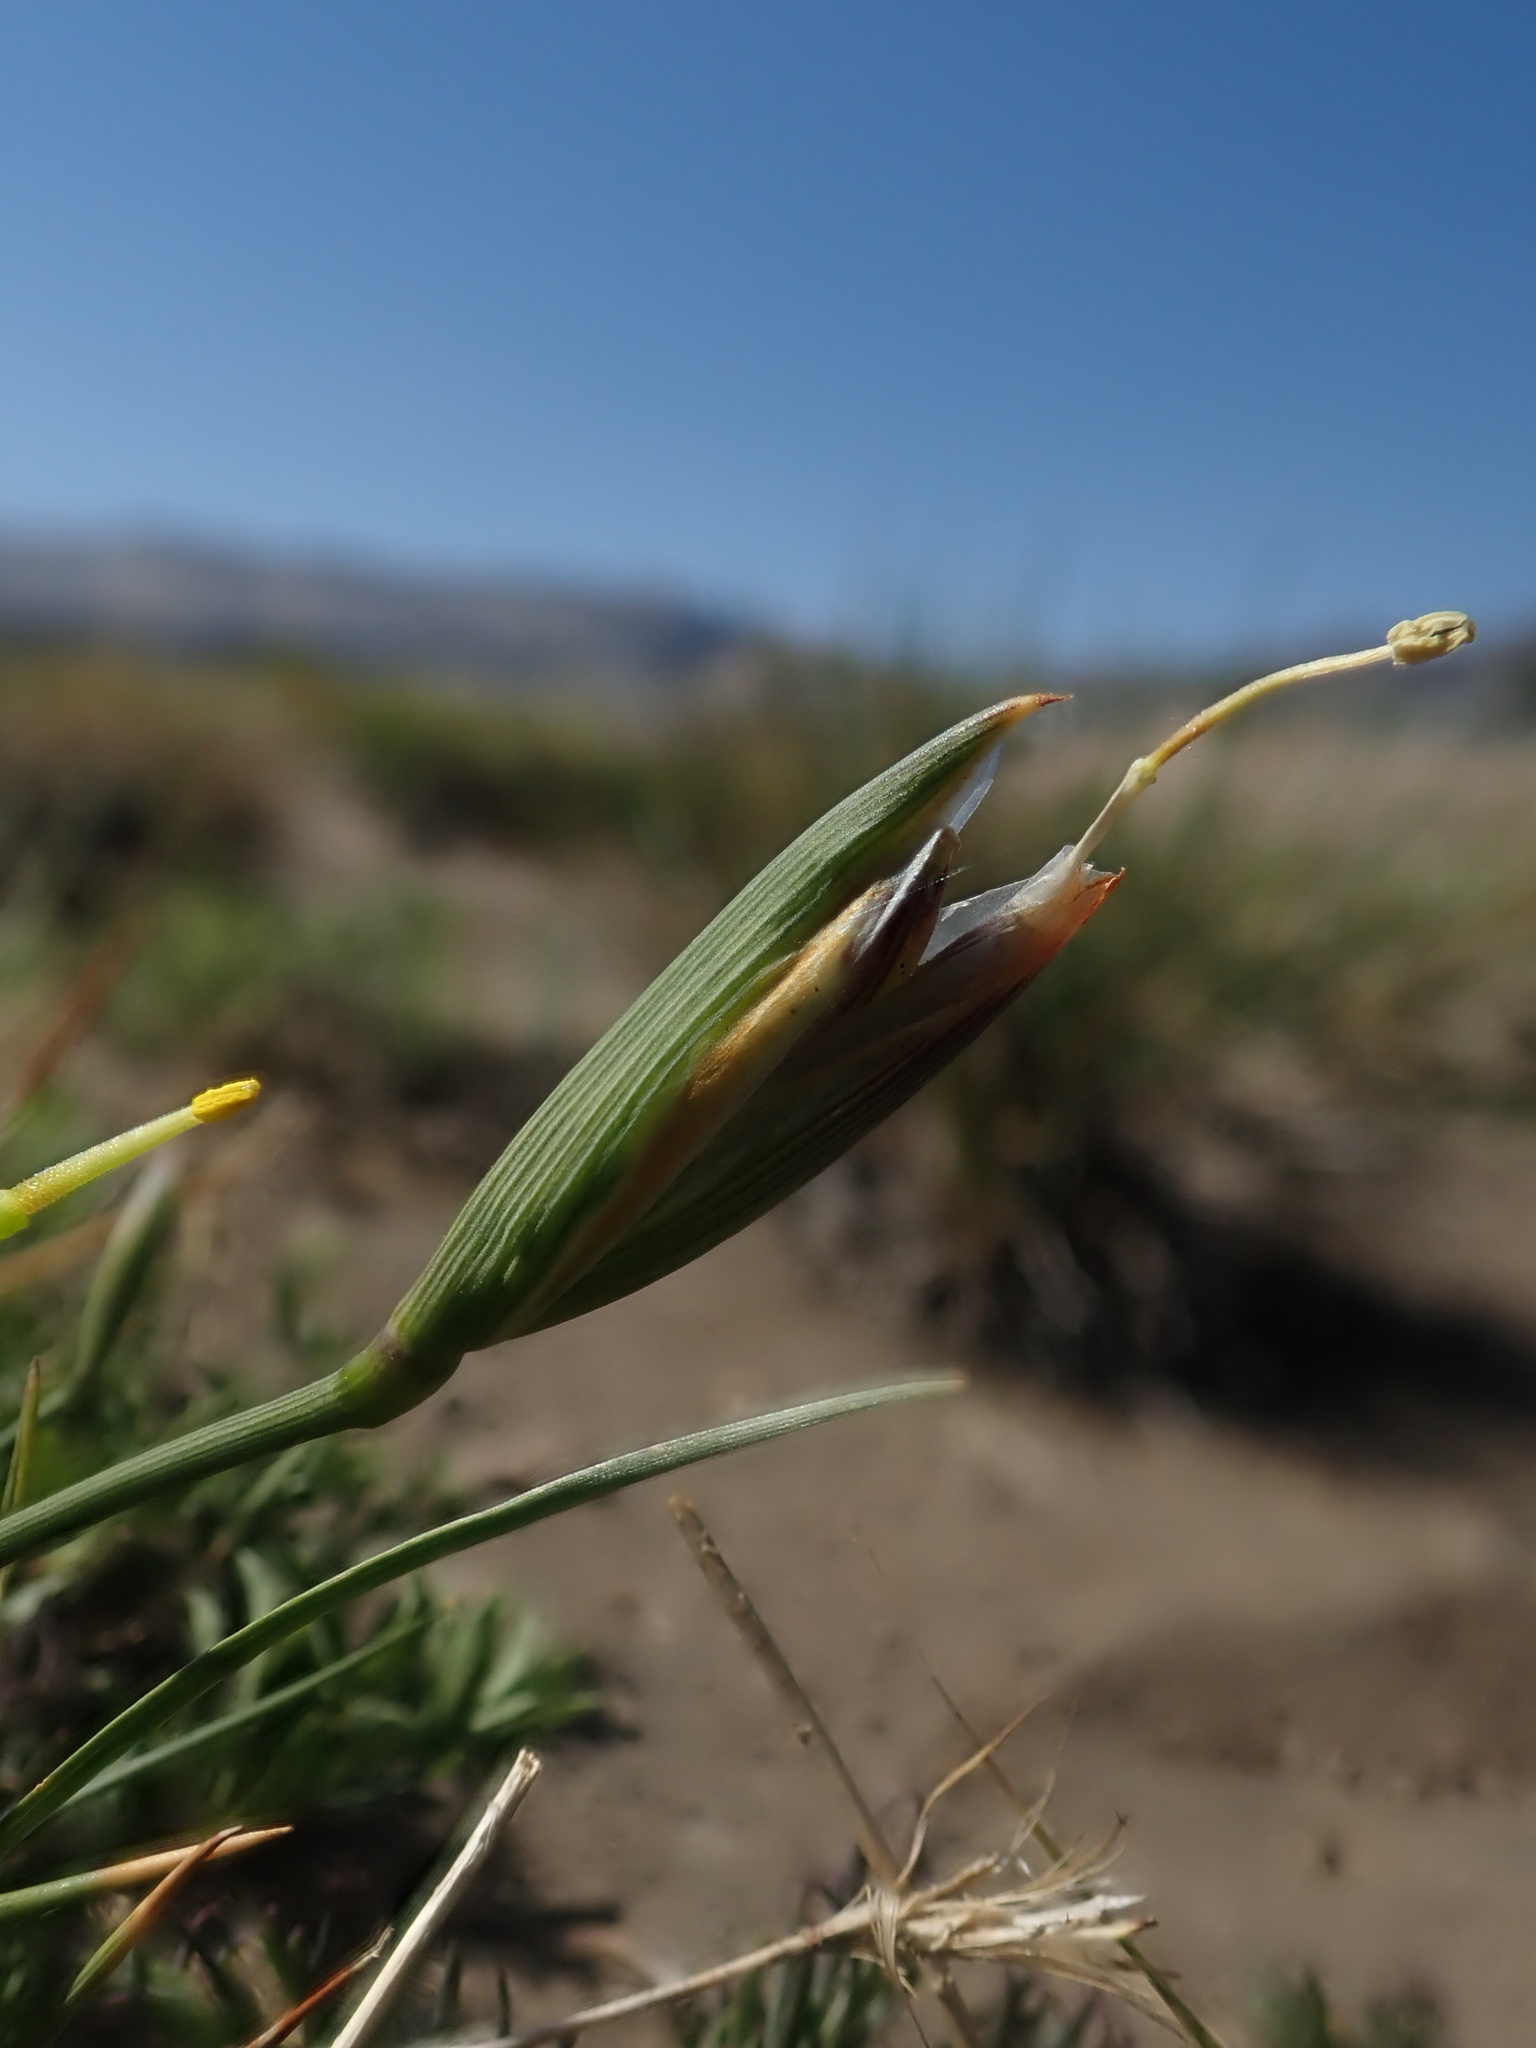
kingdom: Plantae
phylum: Tracheophyta
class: Liliopsida
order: Asparagales
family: Iridaceae
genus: Solenomelus
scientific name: Solenomelus segethi
